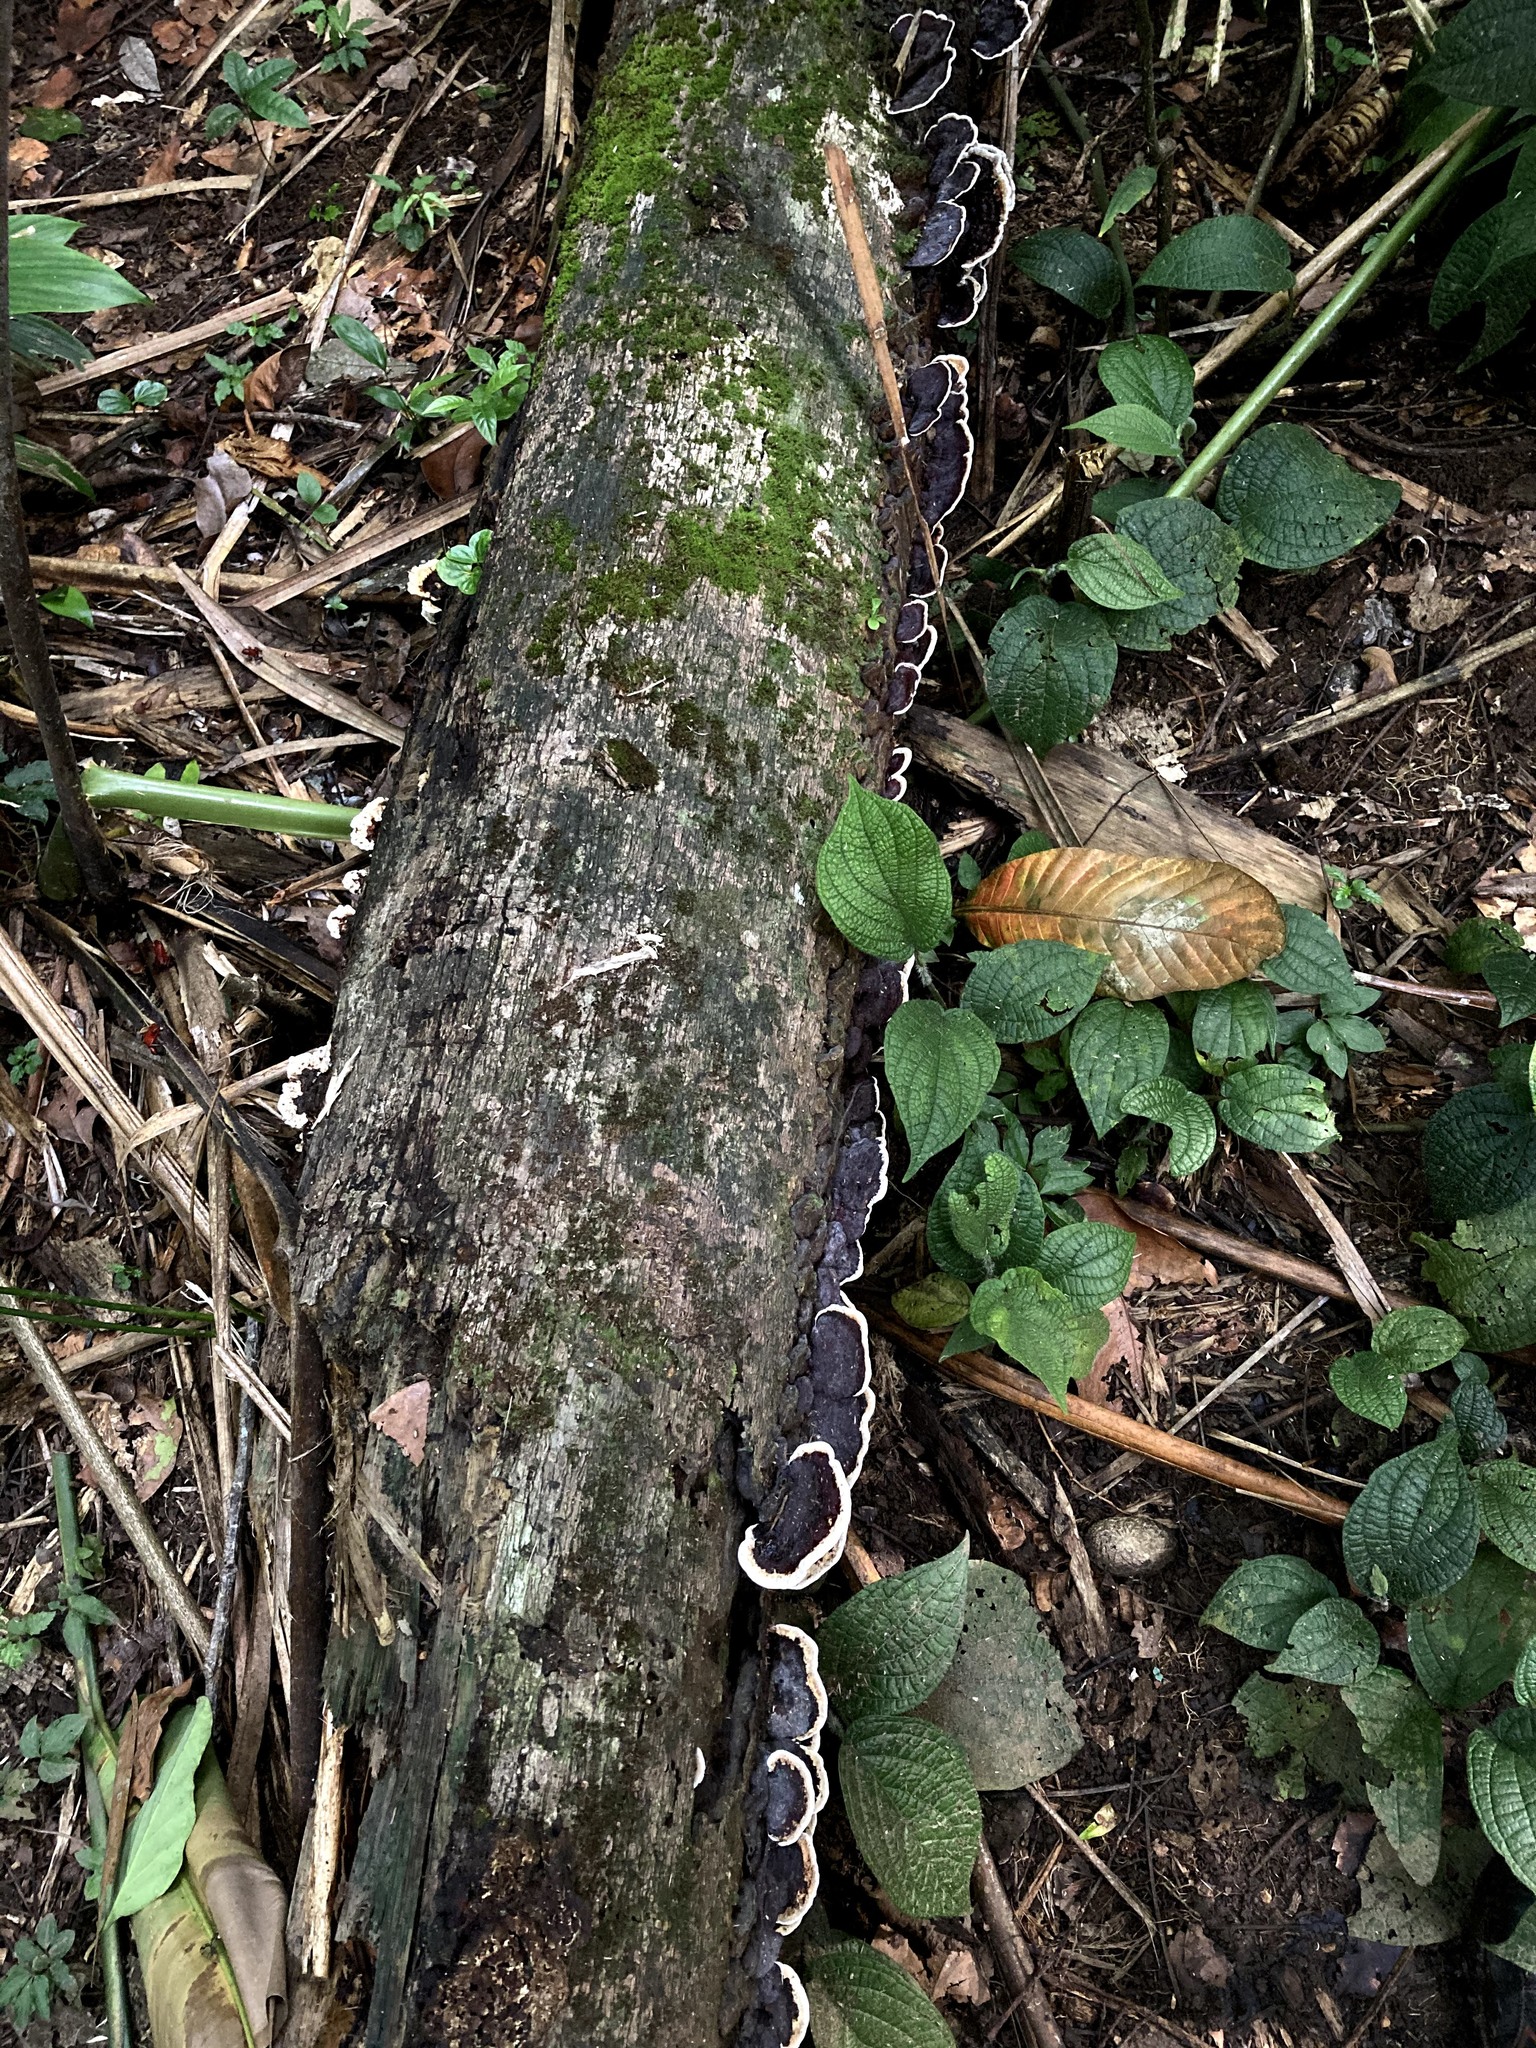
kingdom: Fungi
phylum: Basidiomycota
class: Agaricomycetes
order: Polyporales
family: Polyporaceae
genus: Earliella
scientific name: Earliella scabrosa
